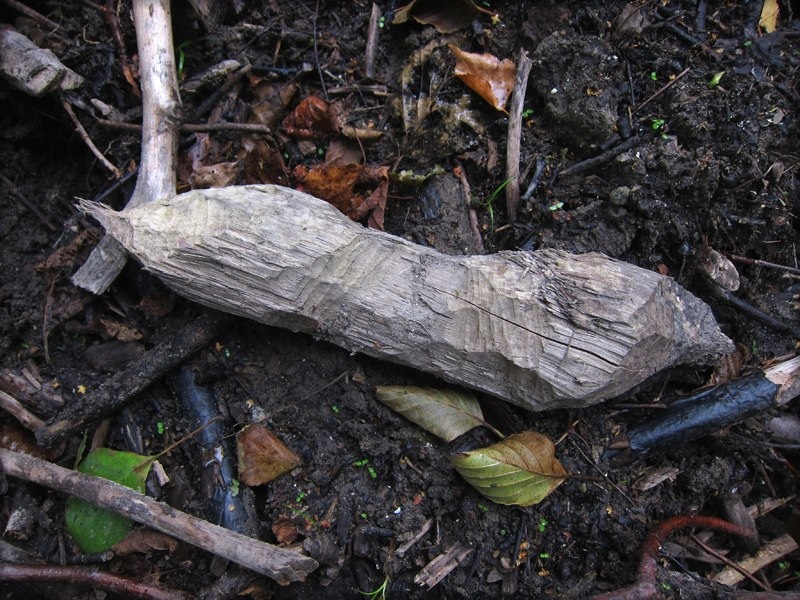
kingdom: Animalia
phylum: Chordata
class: Mammalia
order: Rodentia
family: Castoridae
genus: Castor
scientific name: Castor fiber
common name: Eurasian beaver
